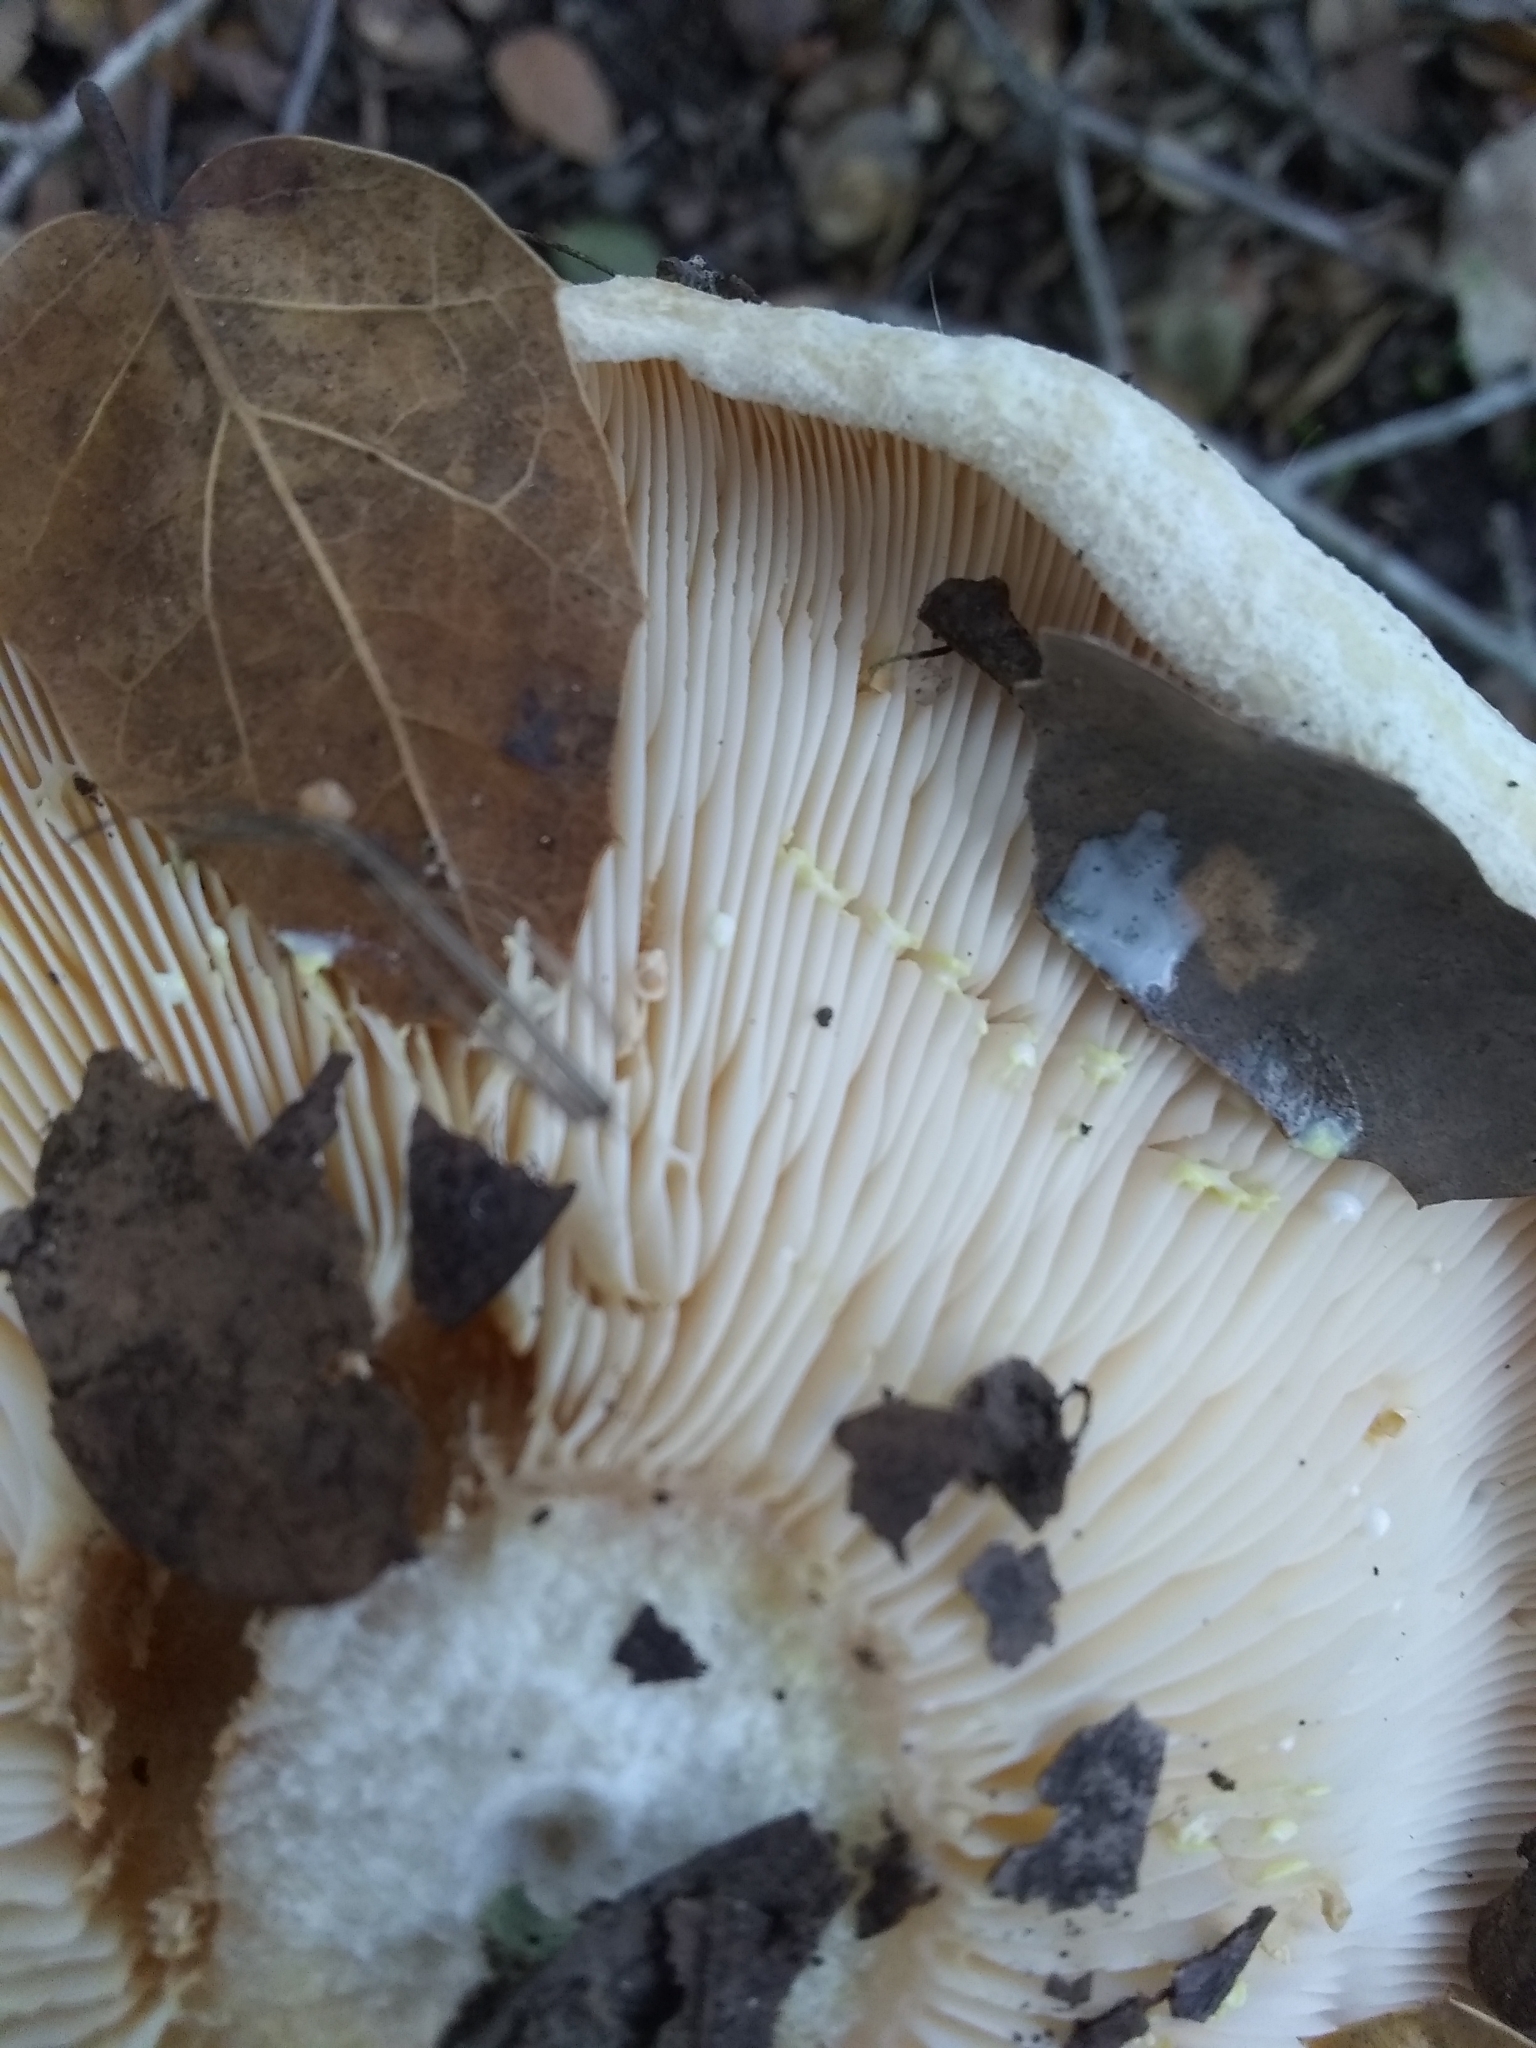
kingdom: Fungi
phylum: Basidiomycota
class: Agaricomycetes
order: Russulales
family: Russulaceae
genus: Lactarius
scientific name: Lactarius alnicola
